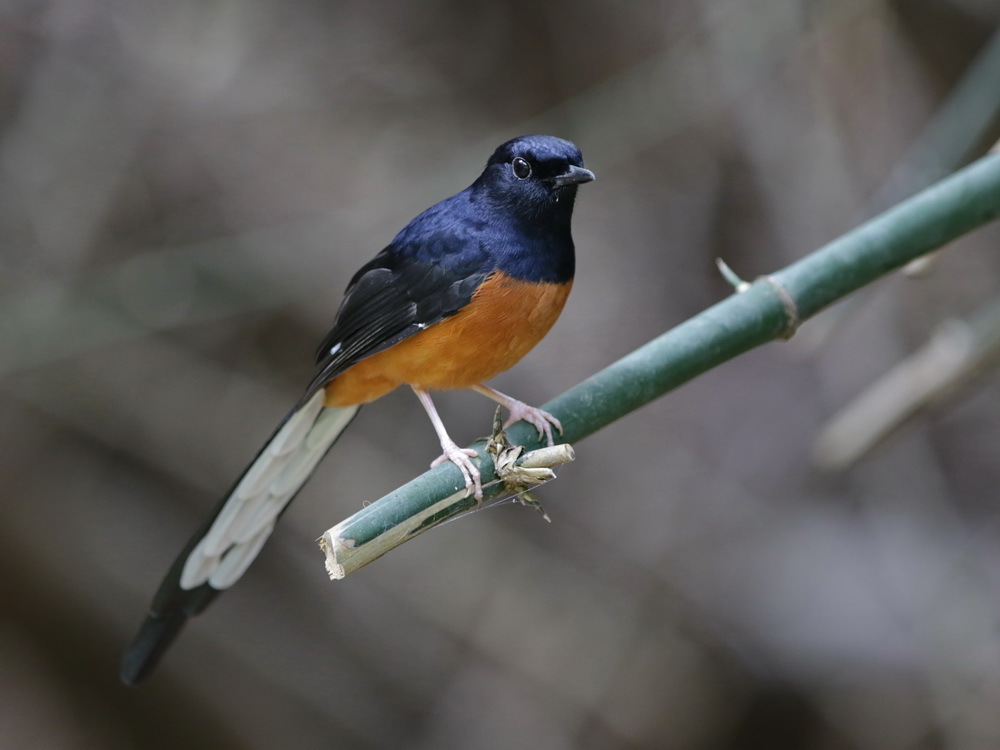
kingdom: Animalia
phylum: Chordata
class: Aves
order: Passeriformes
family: Muscicapidae
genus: Copsychus
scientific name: Copsychus malabaricus
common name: White-rumped shama
